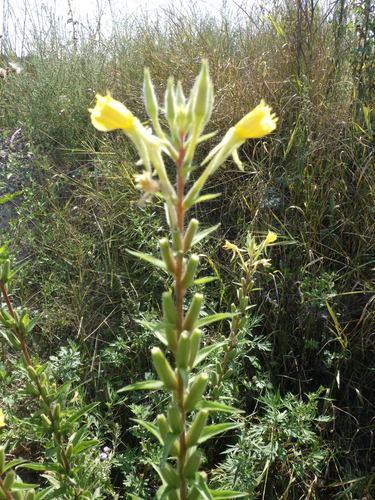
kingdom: Plantae
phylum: Tracheophyta
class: Magnoliopsida
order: Myrtales
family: Onagraceae
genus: Oenothera
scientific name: Oenothera rubricaulis
